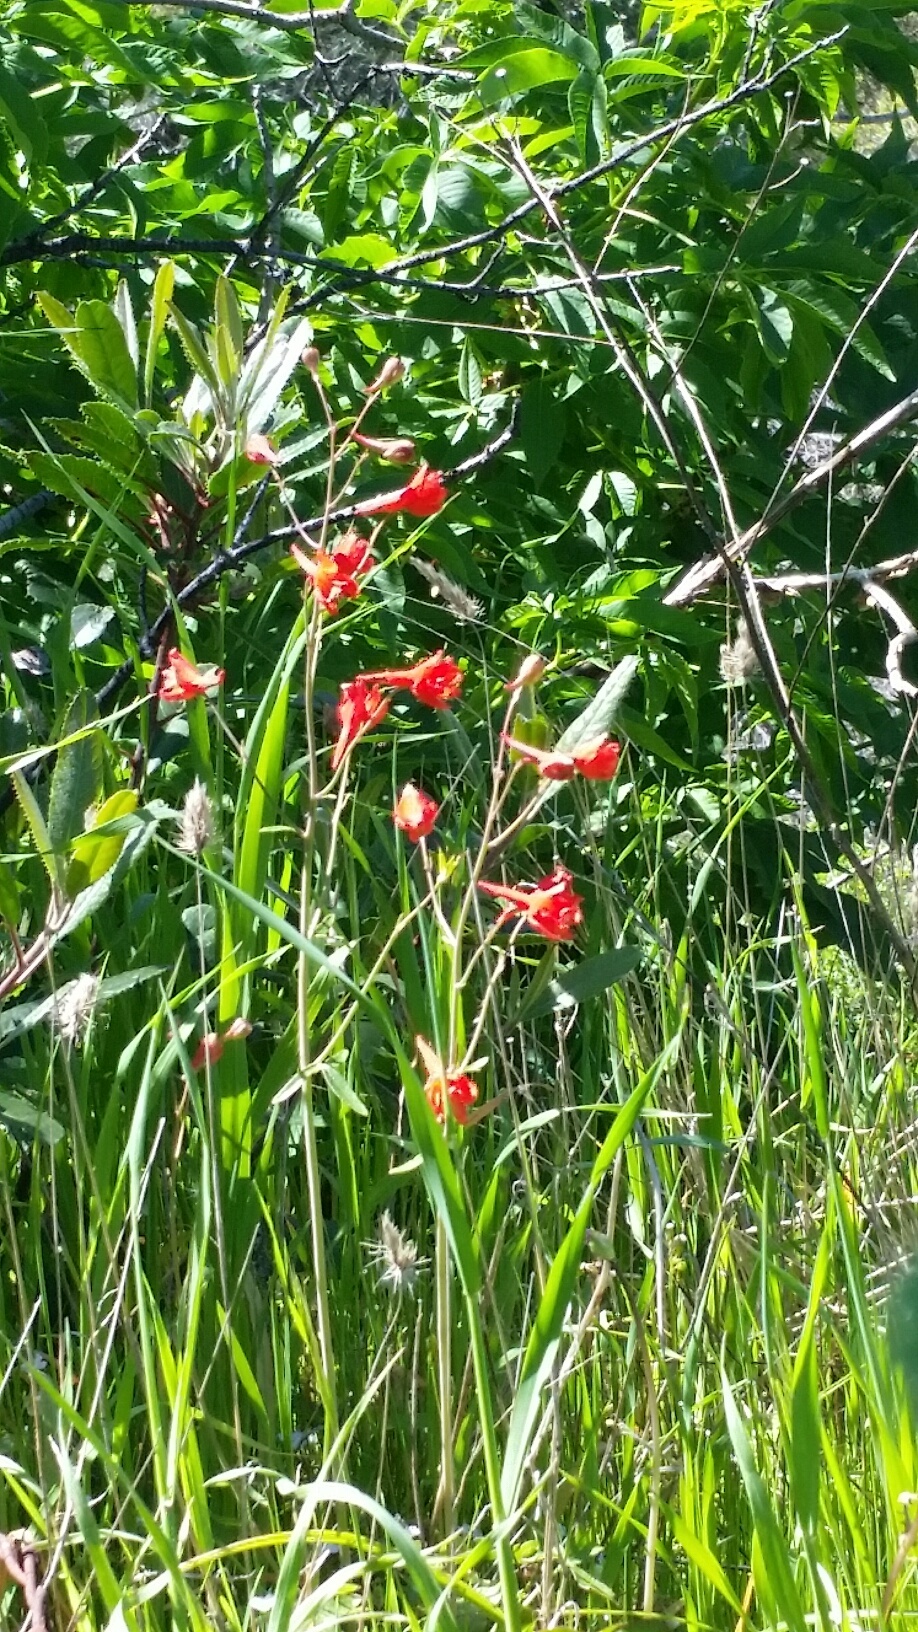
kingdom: Plantae
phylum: Tracheophyta
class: Magnoliopsida
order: Ranunculales
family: Ranunculaceae
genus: Delphinium
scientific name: Delphinium nudicaule
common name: Red larkspur
